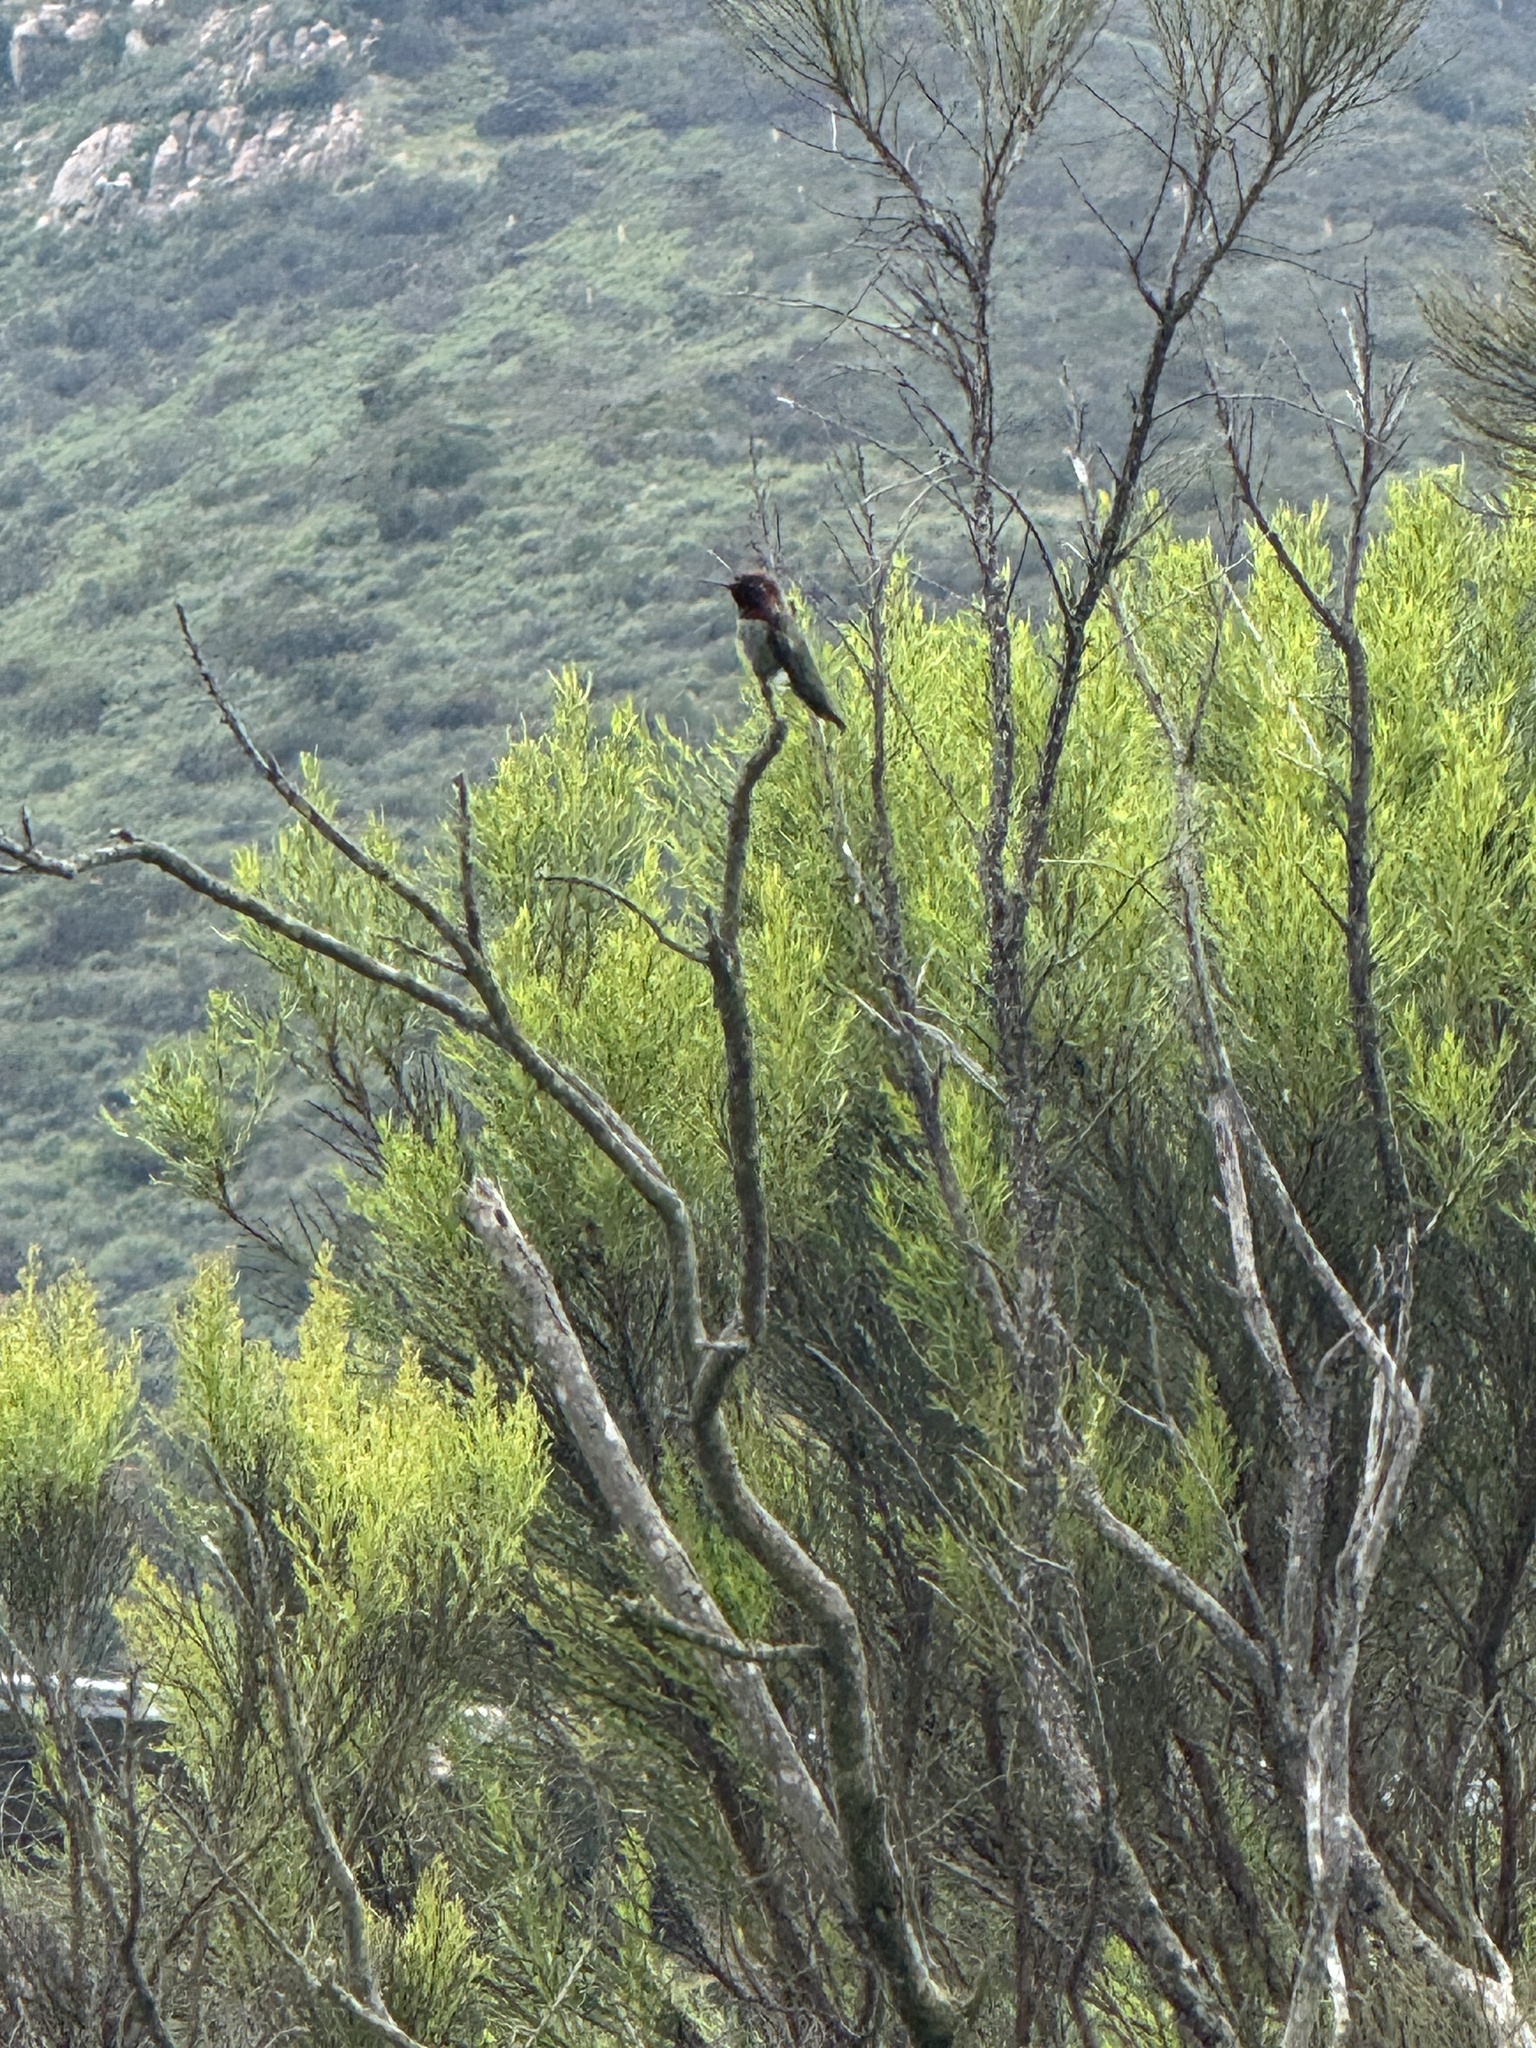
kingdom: Animalia
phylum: Chordata
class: Aves
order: Apodiformes
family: Trochilidae
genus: Calypte
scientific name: Calypte anna
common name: Anna's hummingbird
